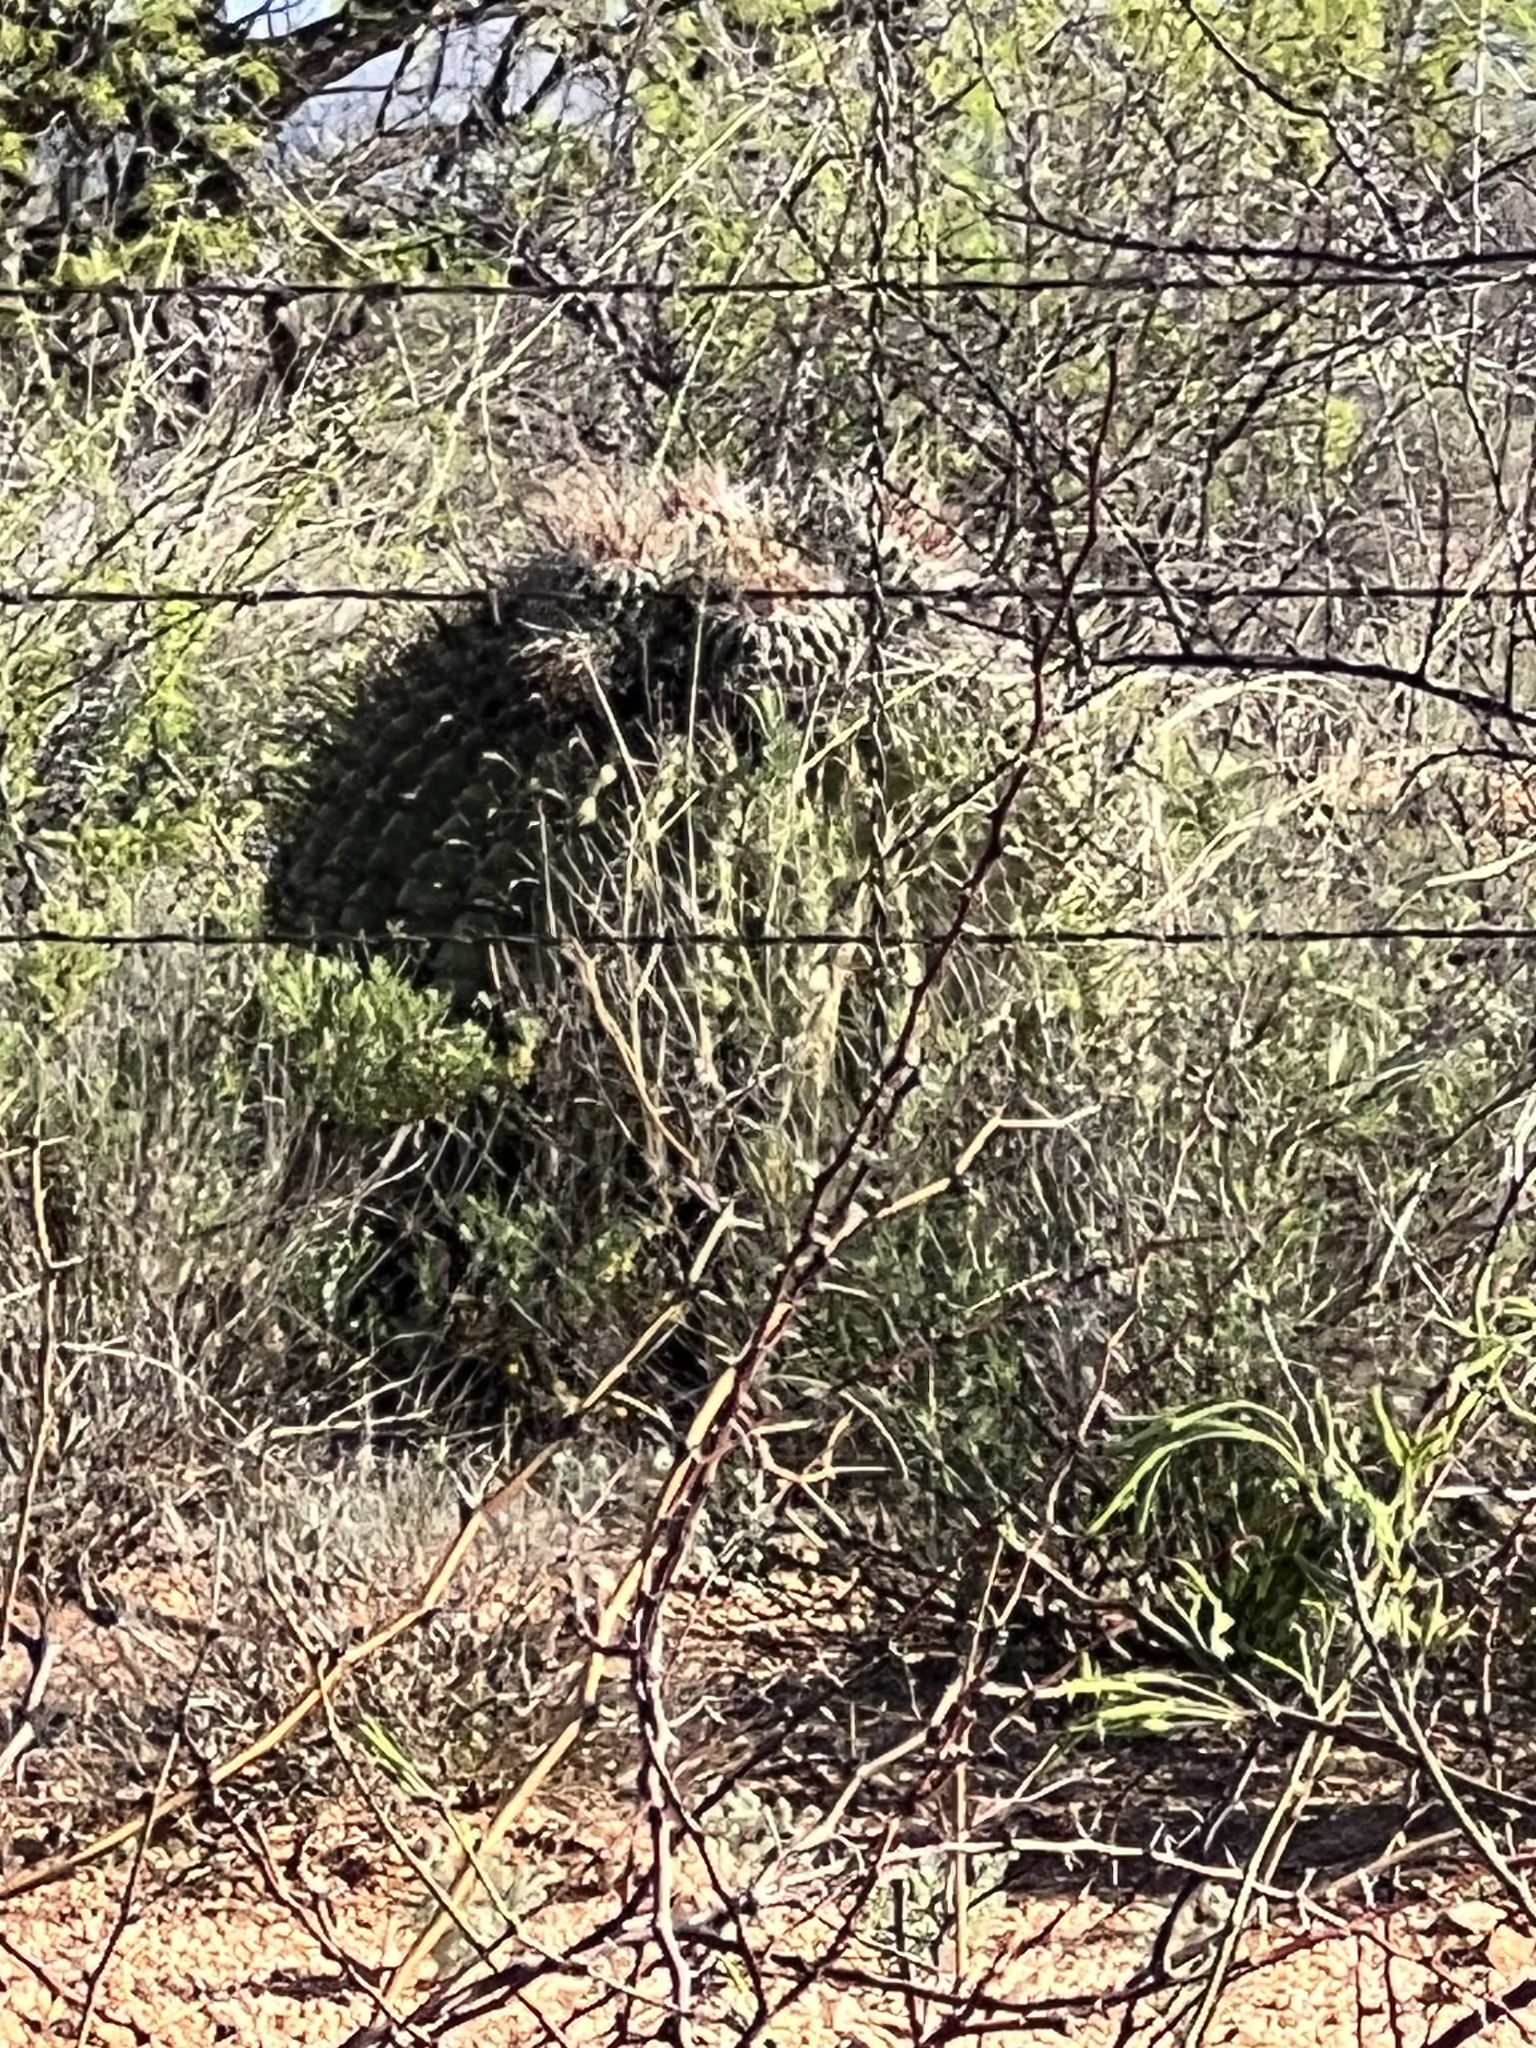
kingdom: Plantae
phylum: Tracheophyta
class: Magnoliopsida
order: Caryophyllales
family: Cactaceae
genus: Ferocactus
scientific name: Ferocactus wislizeni
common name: Candy barrel cactus
